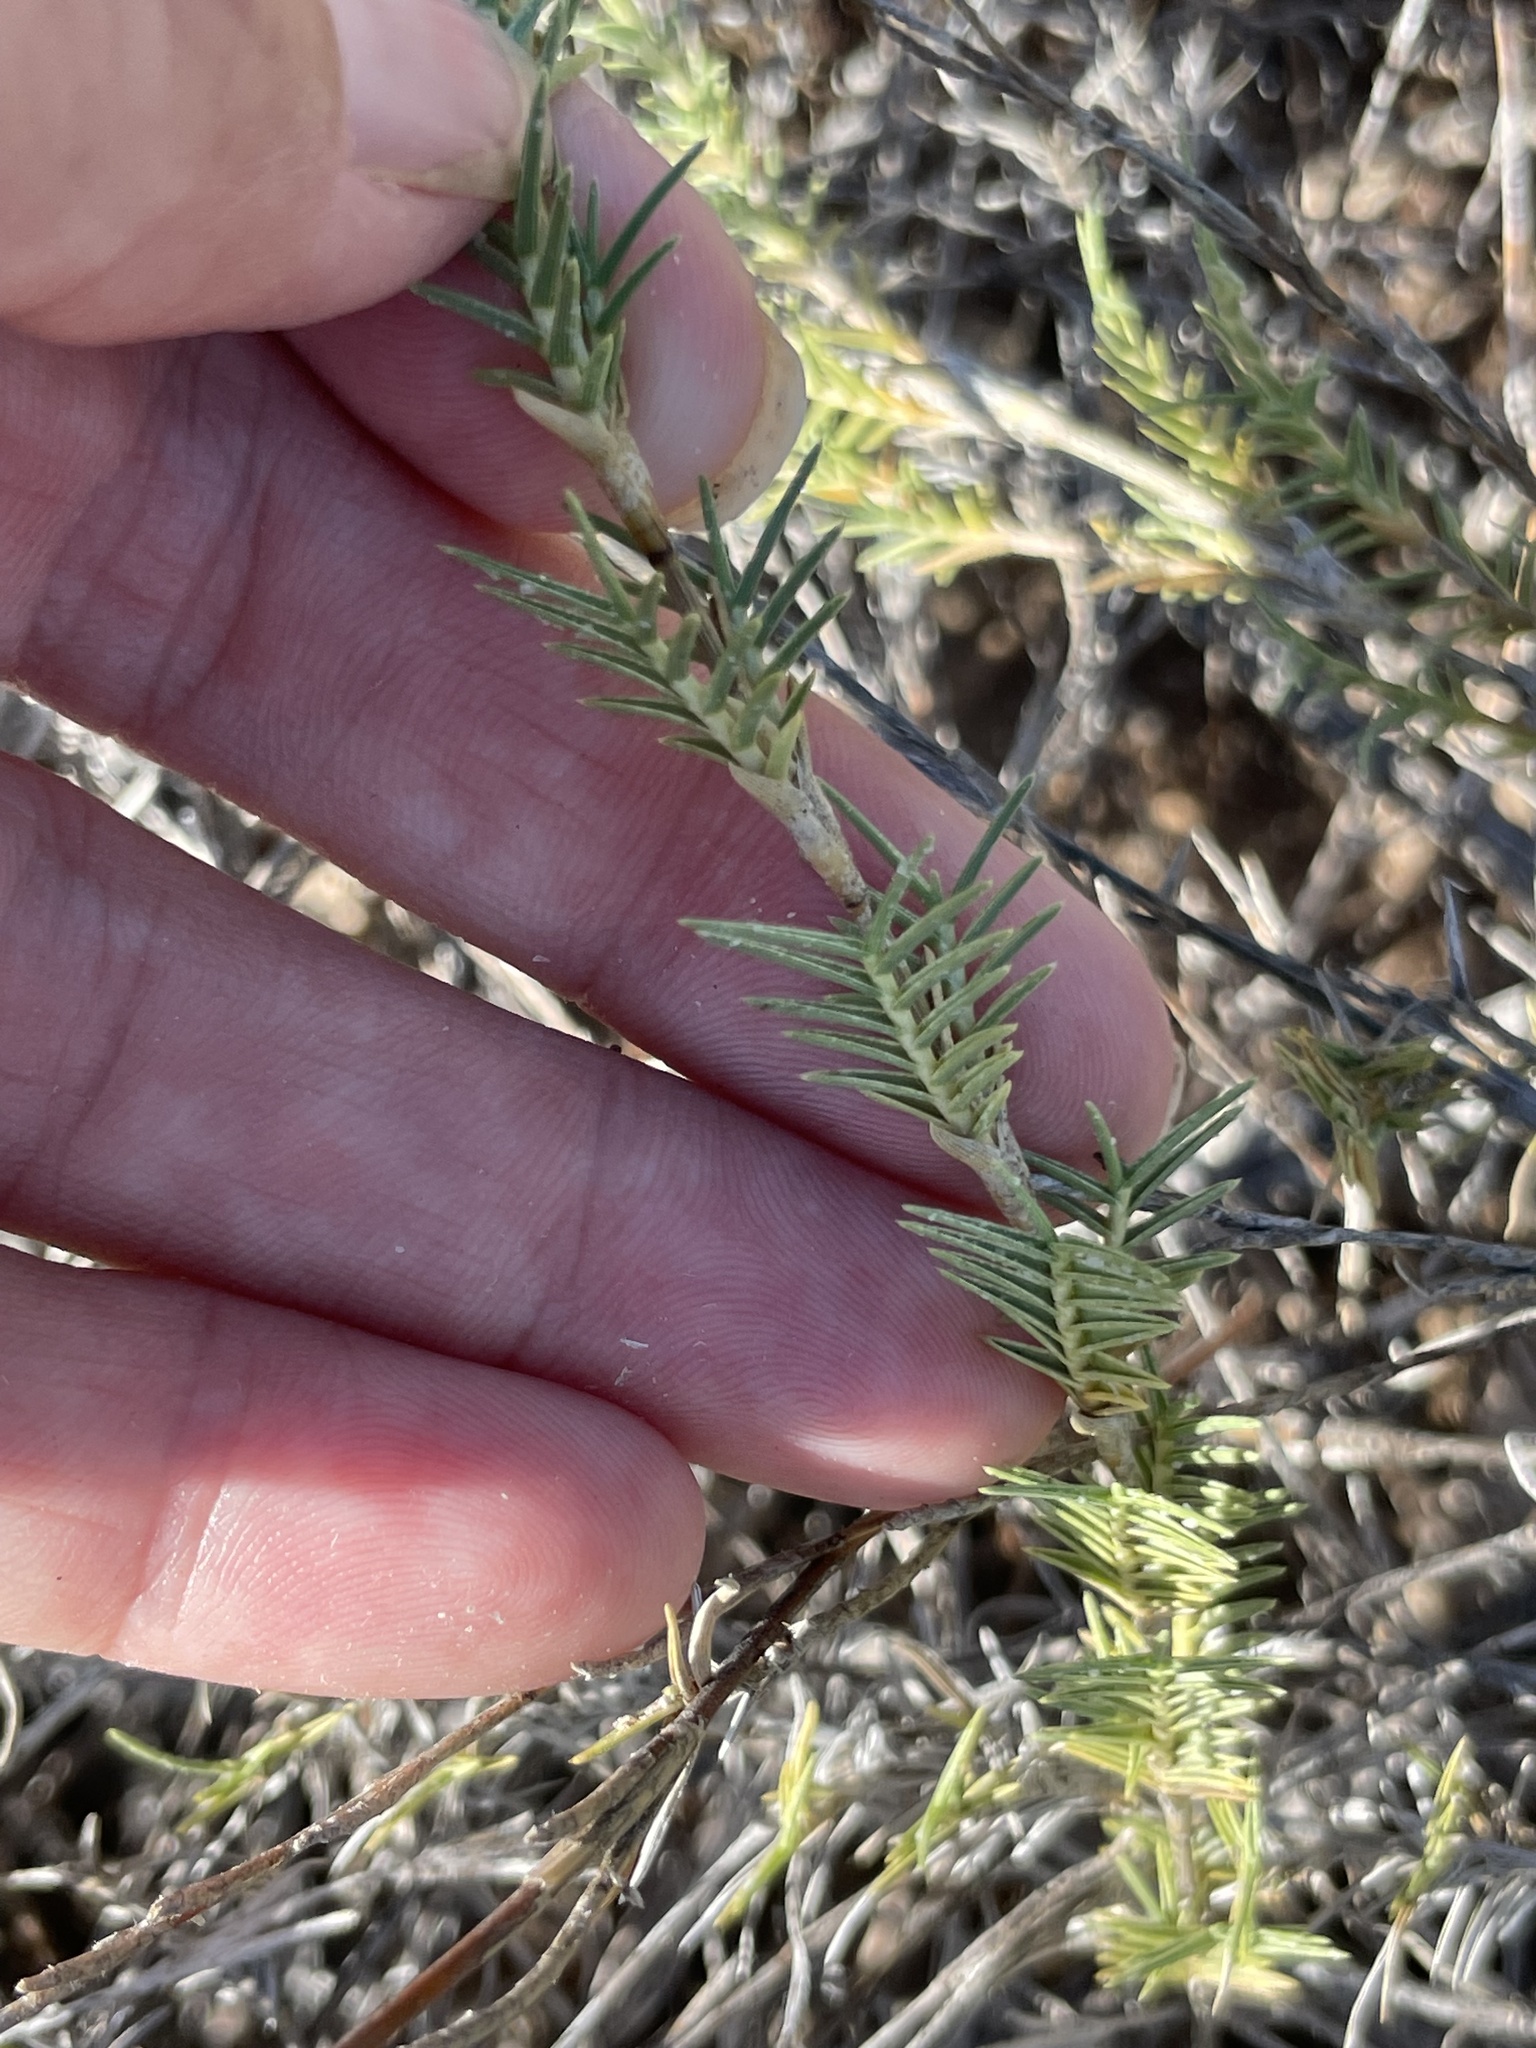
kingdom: Plantae
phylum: Tracheophyta
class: Liliopsida
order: Poales
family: Poaceae
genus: Distichlis
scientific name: Distichlis littoralis
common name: Shore grass
